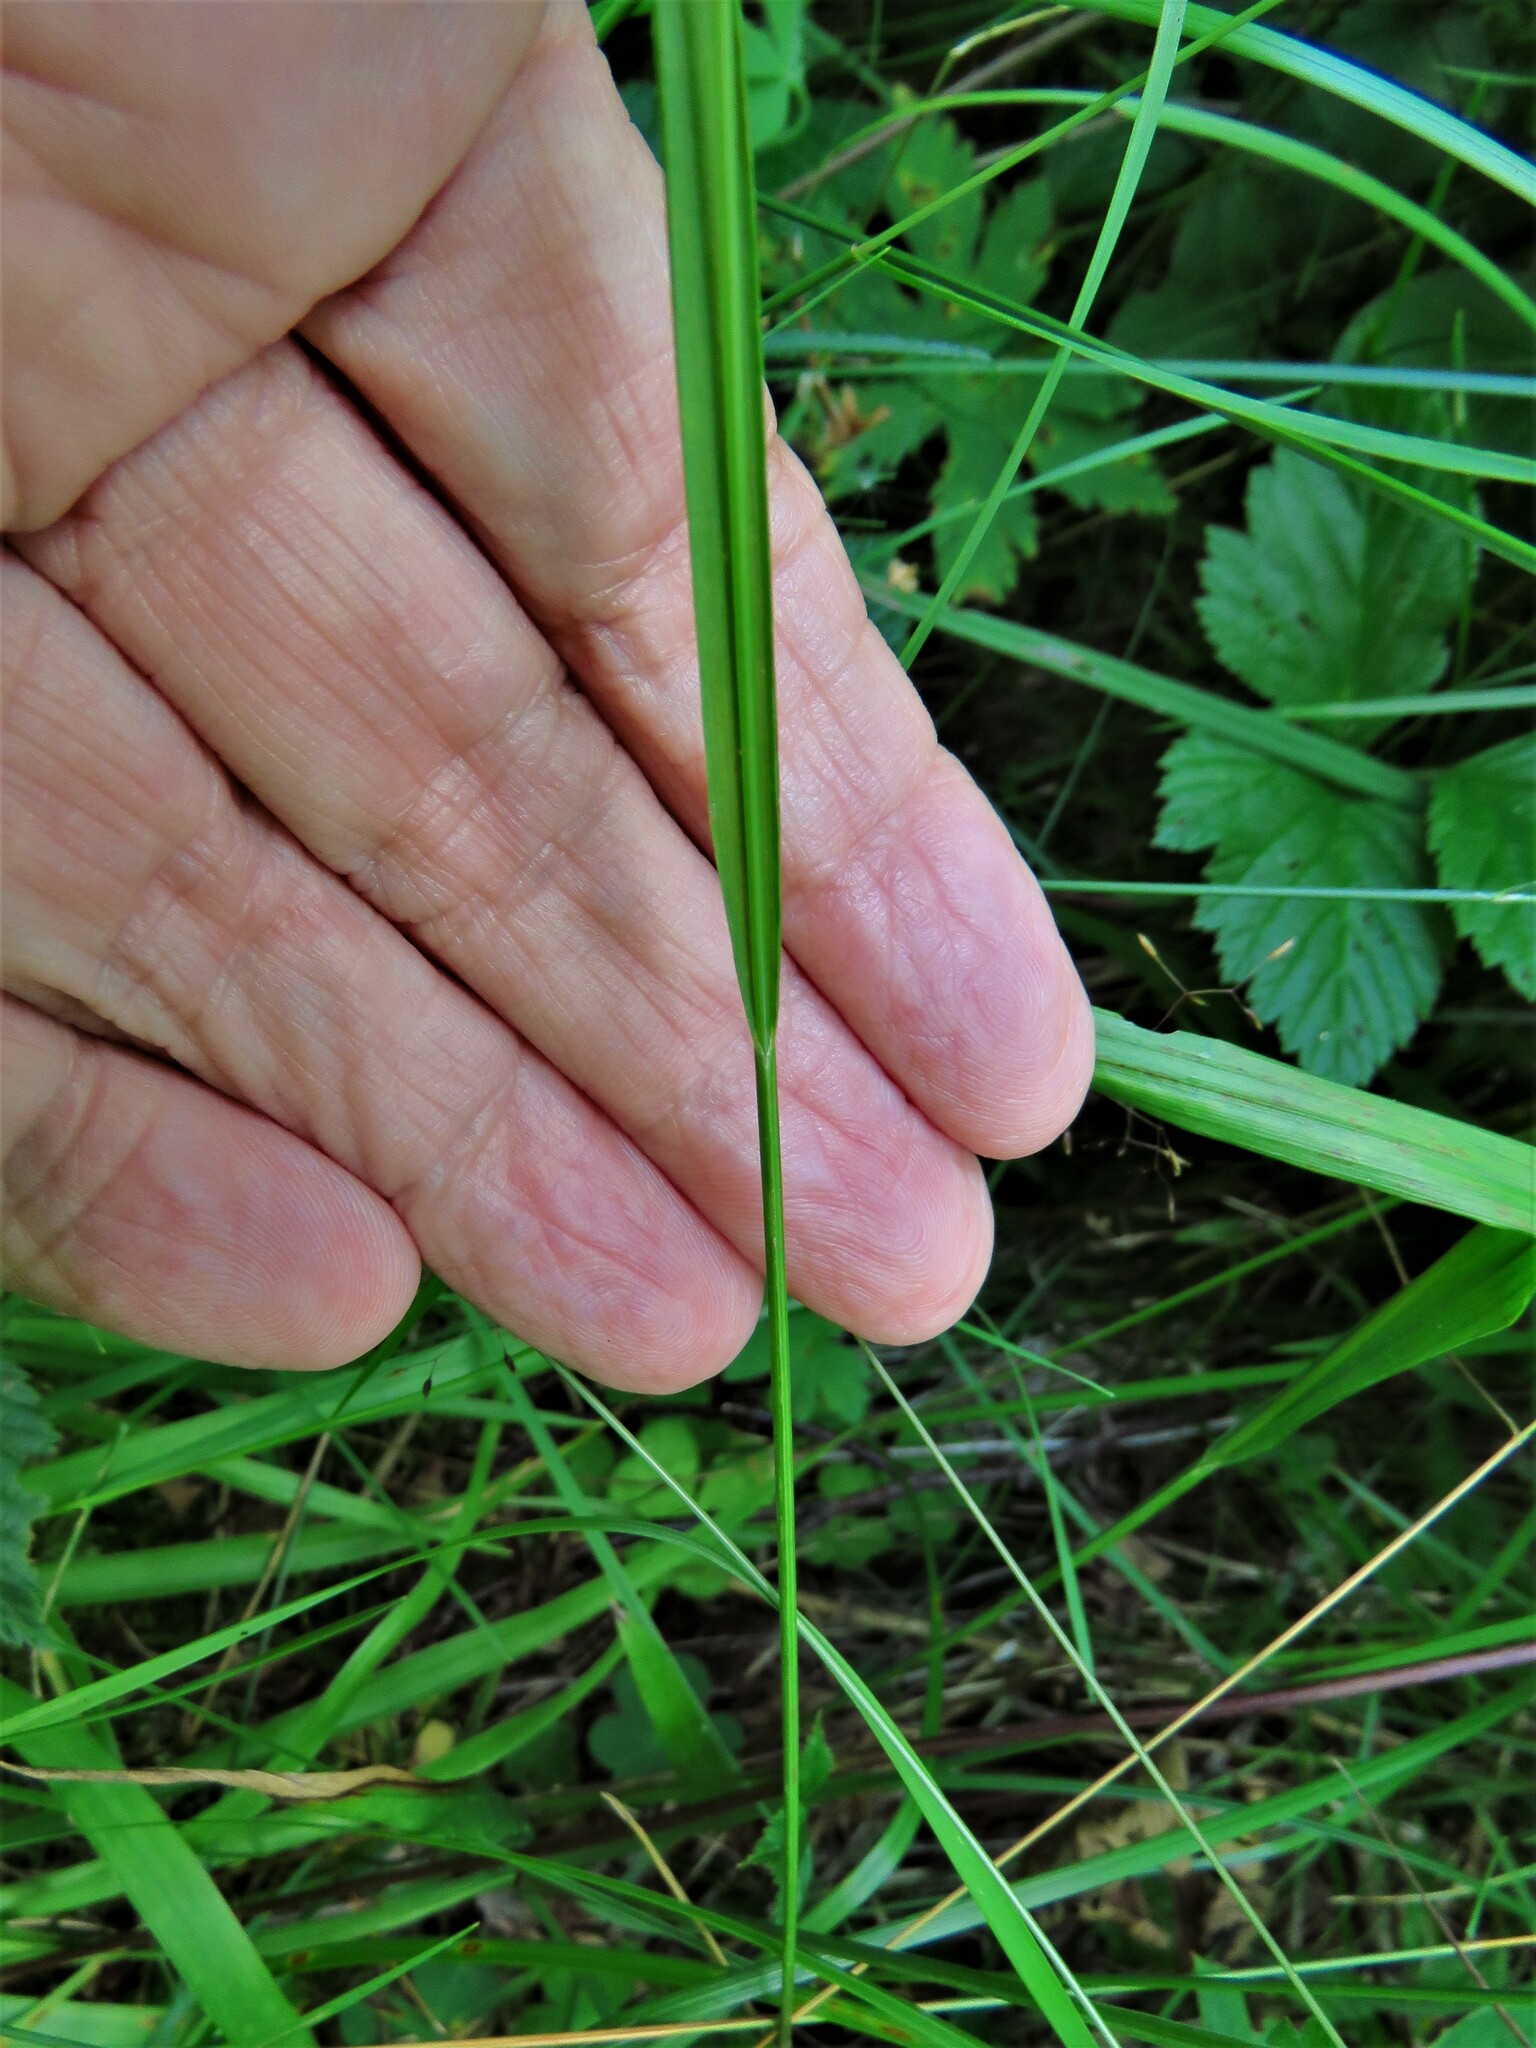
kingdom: Plantae
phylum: Tracheophyta
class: Liliopsida
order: Poales
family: Poaceae
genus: Melica
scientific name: Melica nutans
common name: Mountain melick
